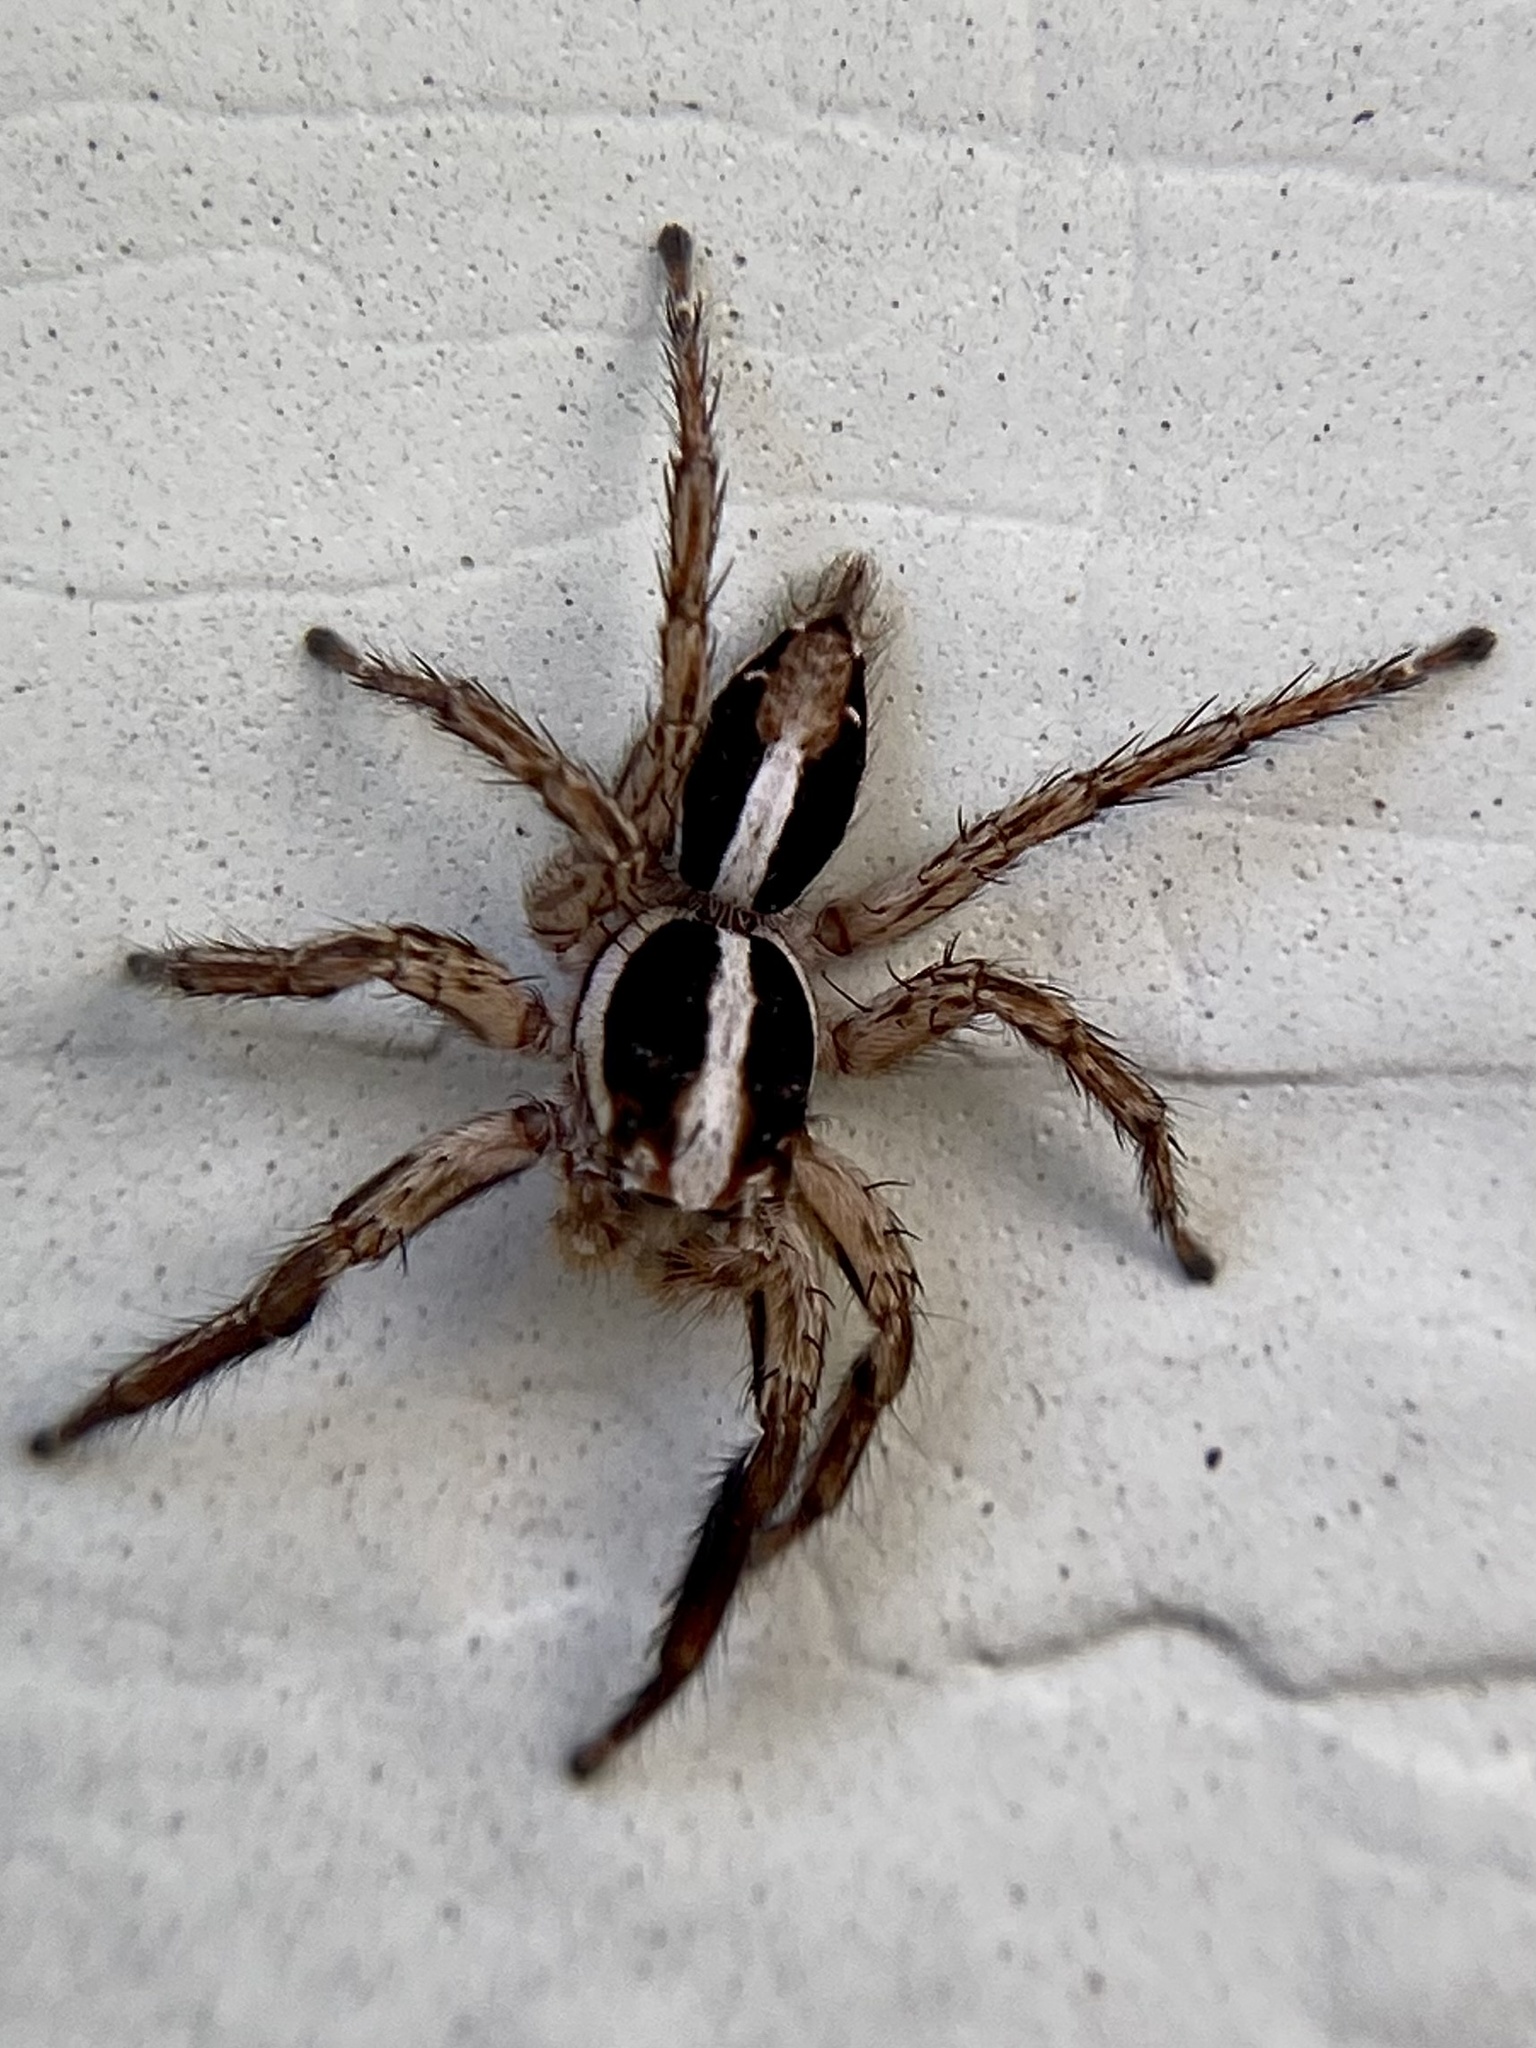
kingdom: Animalia
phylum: Arthropoda
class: Arachnida
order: Araneae
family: Salticidae
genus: Plexippus
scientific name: Plexippus paykulli
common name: Pantropical jumper
